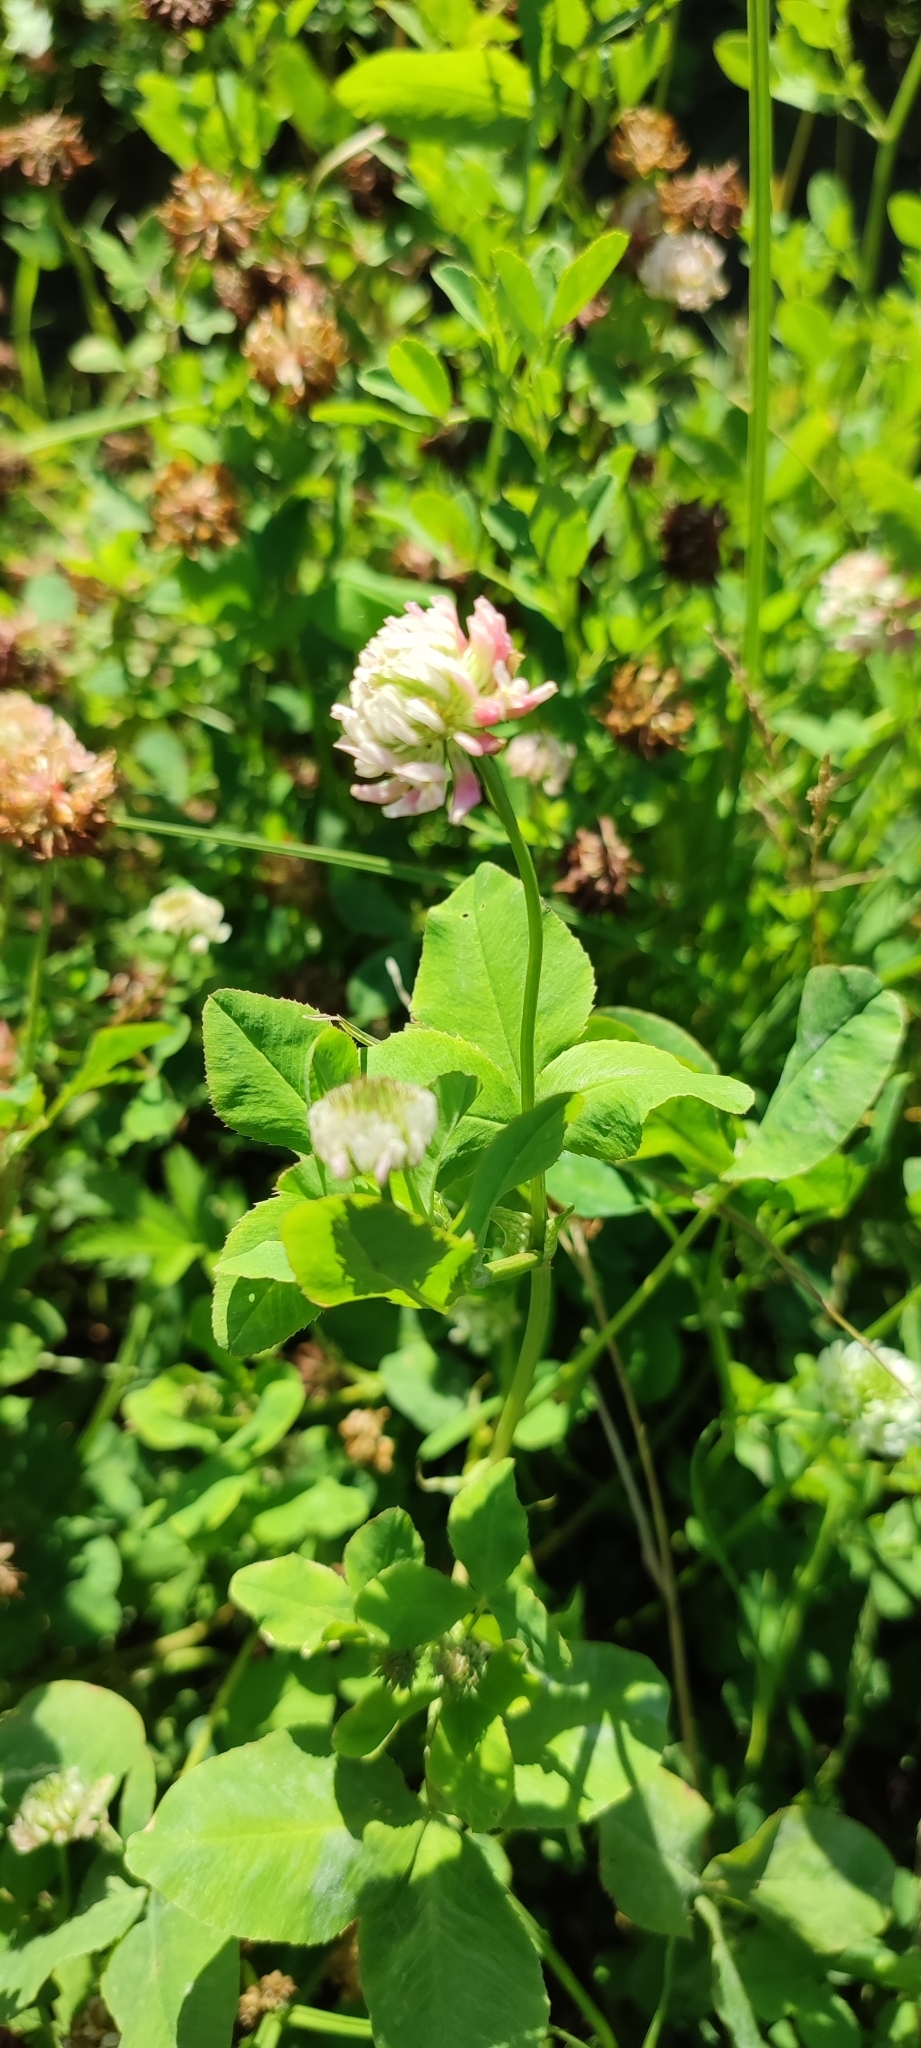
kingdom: Plantae
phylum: Tracheophyta
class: Magnoliopsida
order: Fabales
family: Fabaceae
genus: Trifolium
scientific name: Trifolium hybridum
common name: Alsike clover
